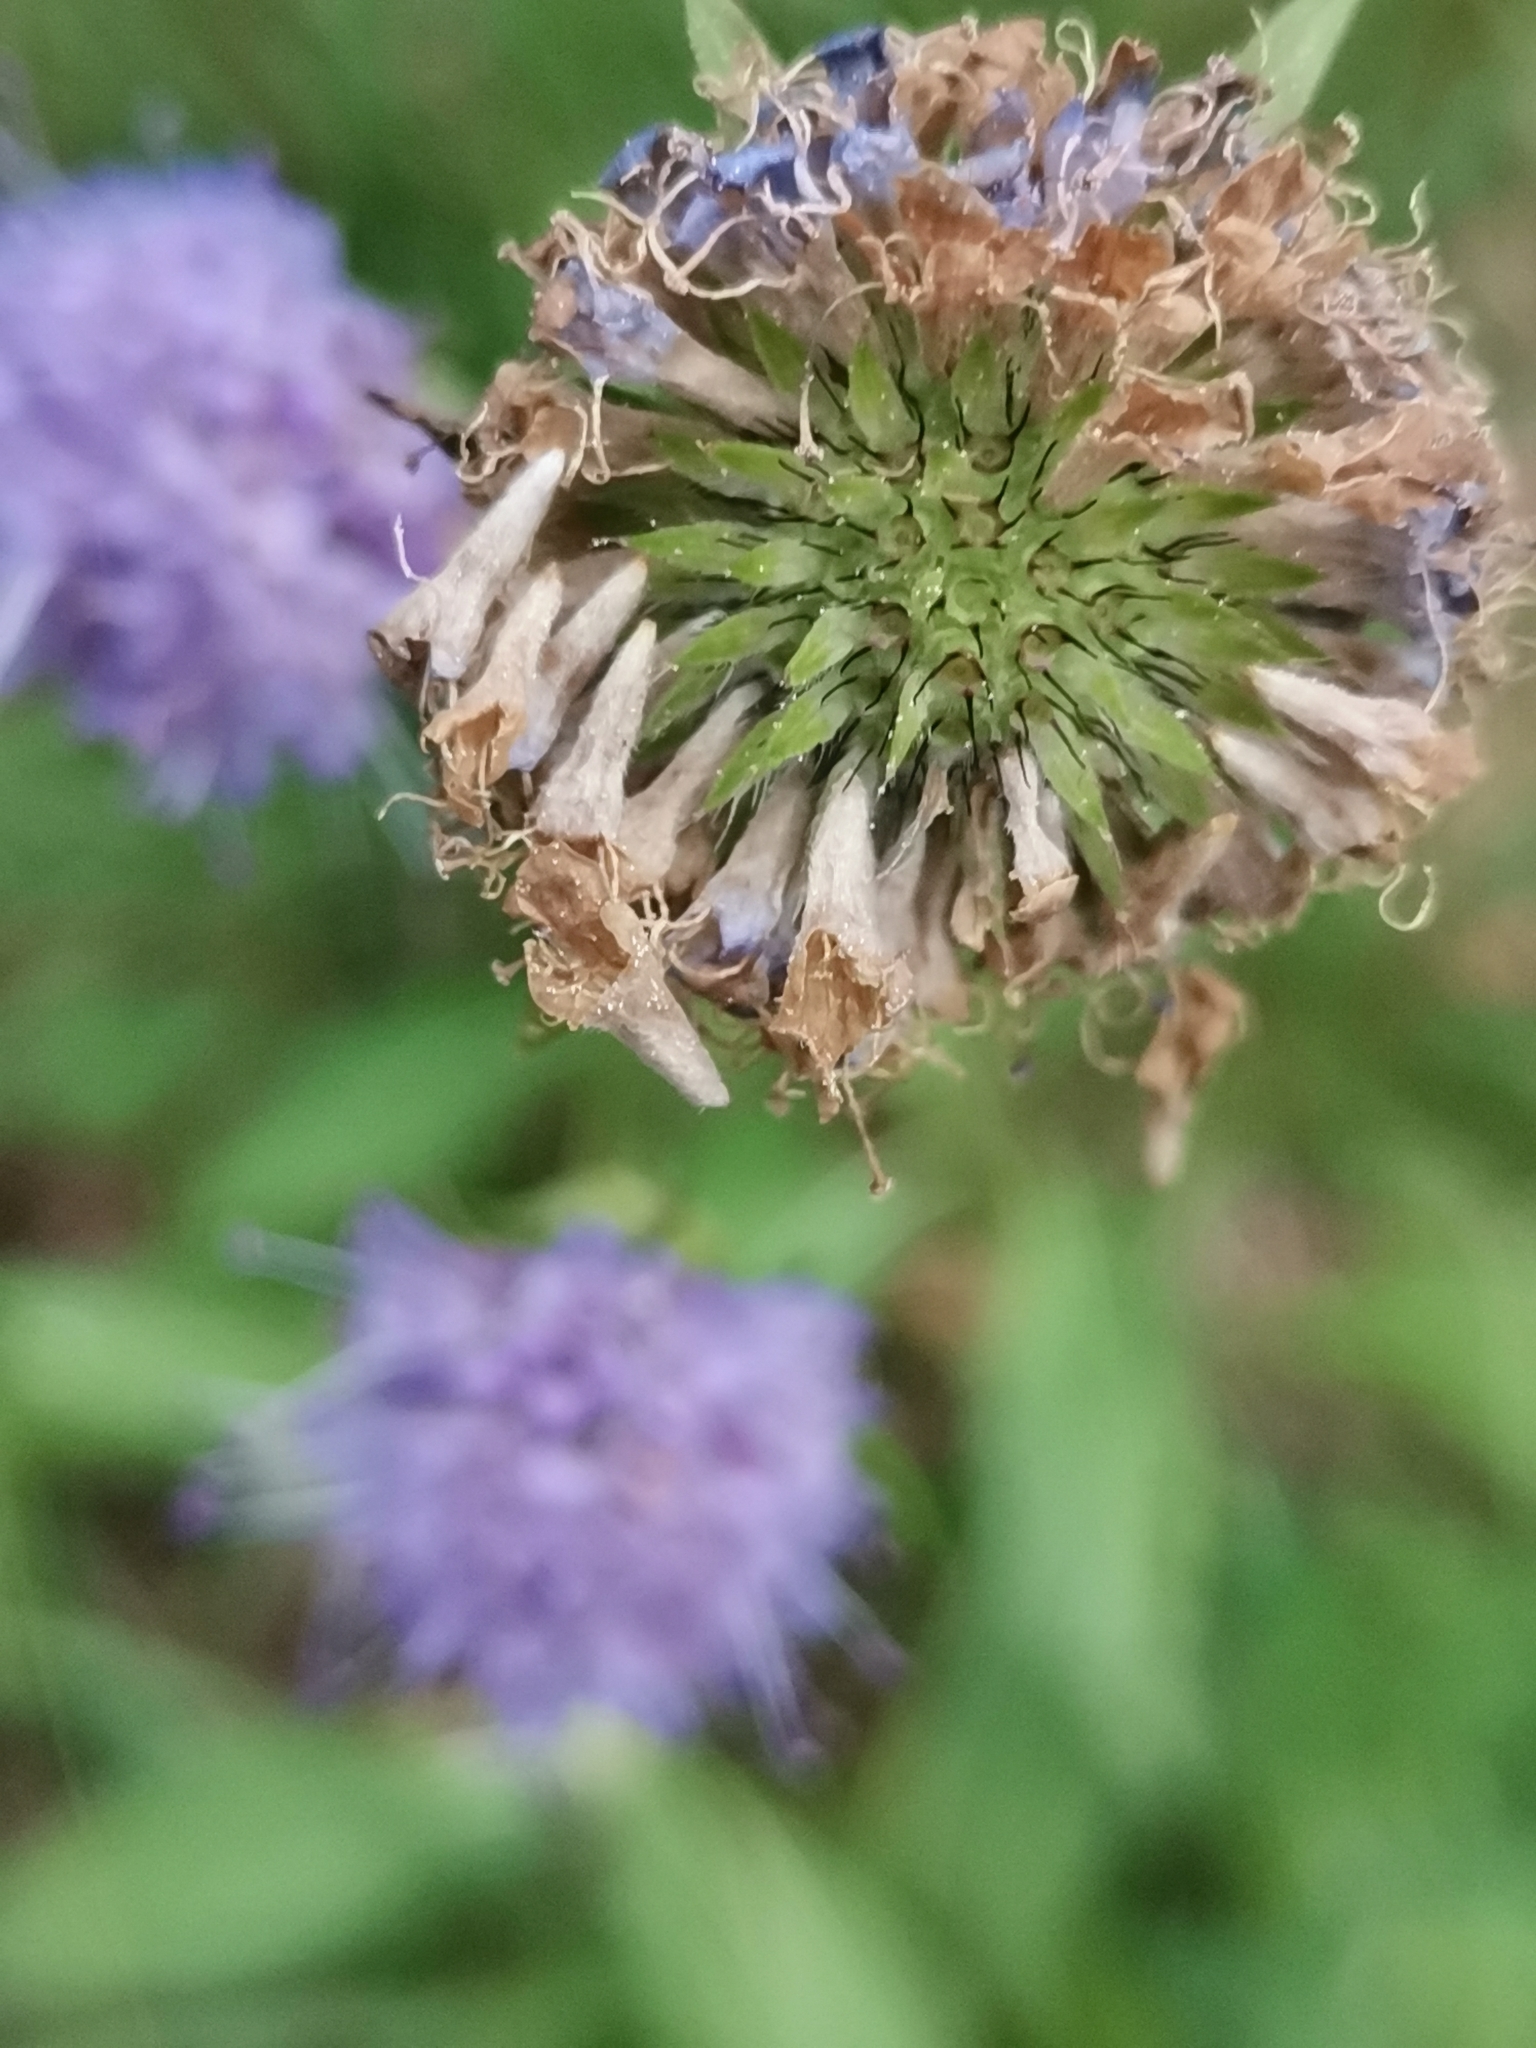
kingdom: Plantae
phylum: Tracheophyta
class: Magnoliopsida
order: Dipsacales
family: Caprifoliaceae
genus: Succisa
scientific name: Succisa pratensis
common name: Devil's-bit
